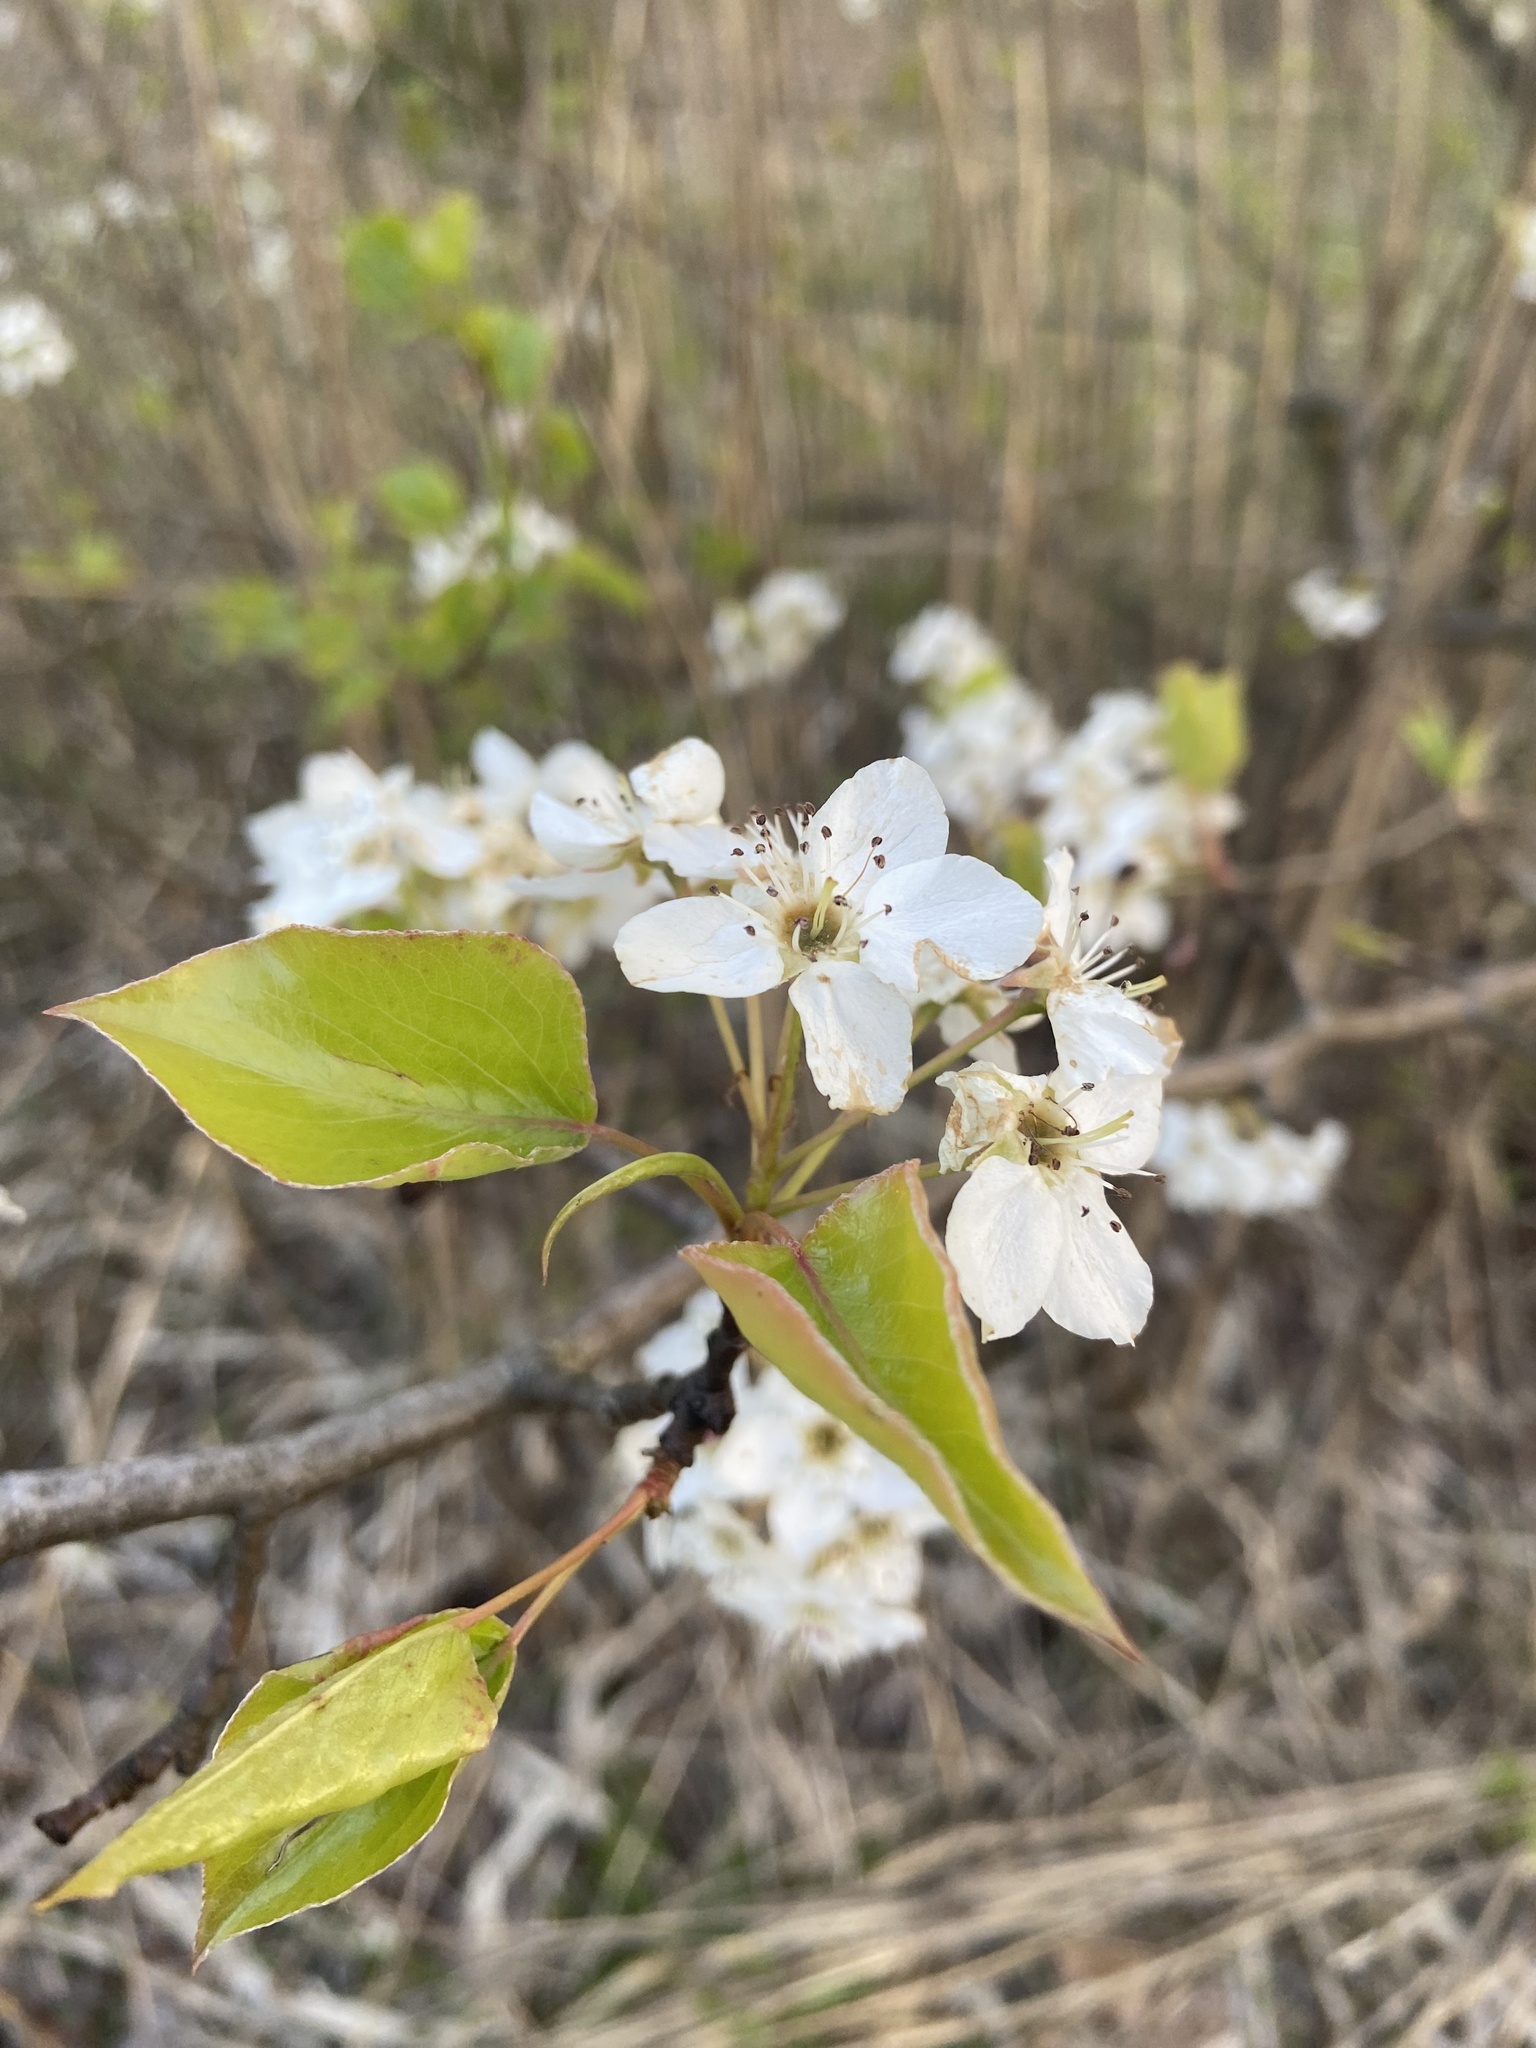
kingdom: Plantae
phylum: Tracheophyta
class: Magnoliopsida
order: Rosales
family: Rosaceae
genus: Pyrus
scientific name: Pyrus calleryana
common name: Callery pear
